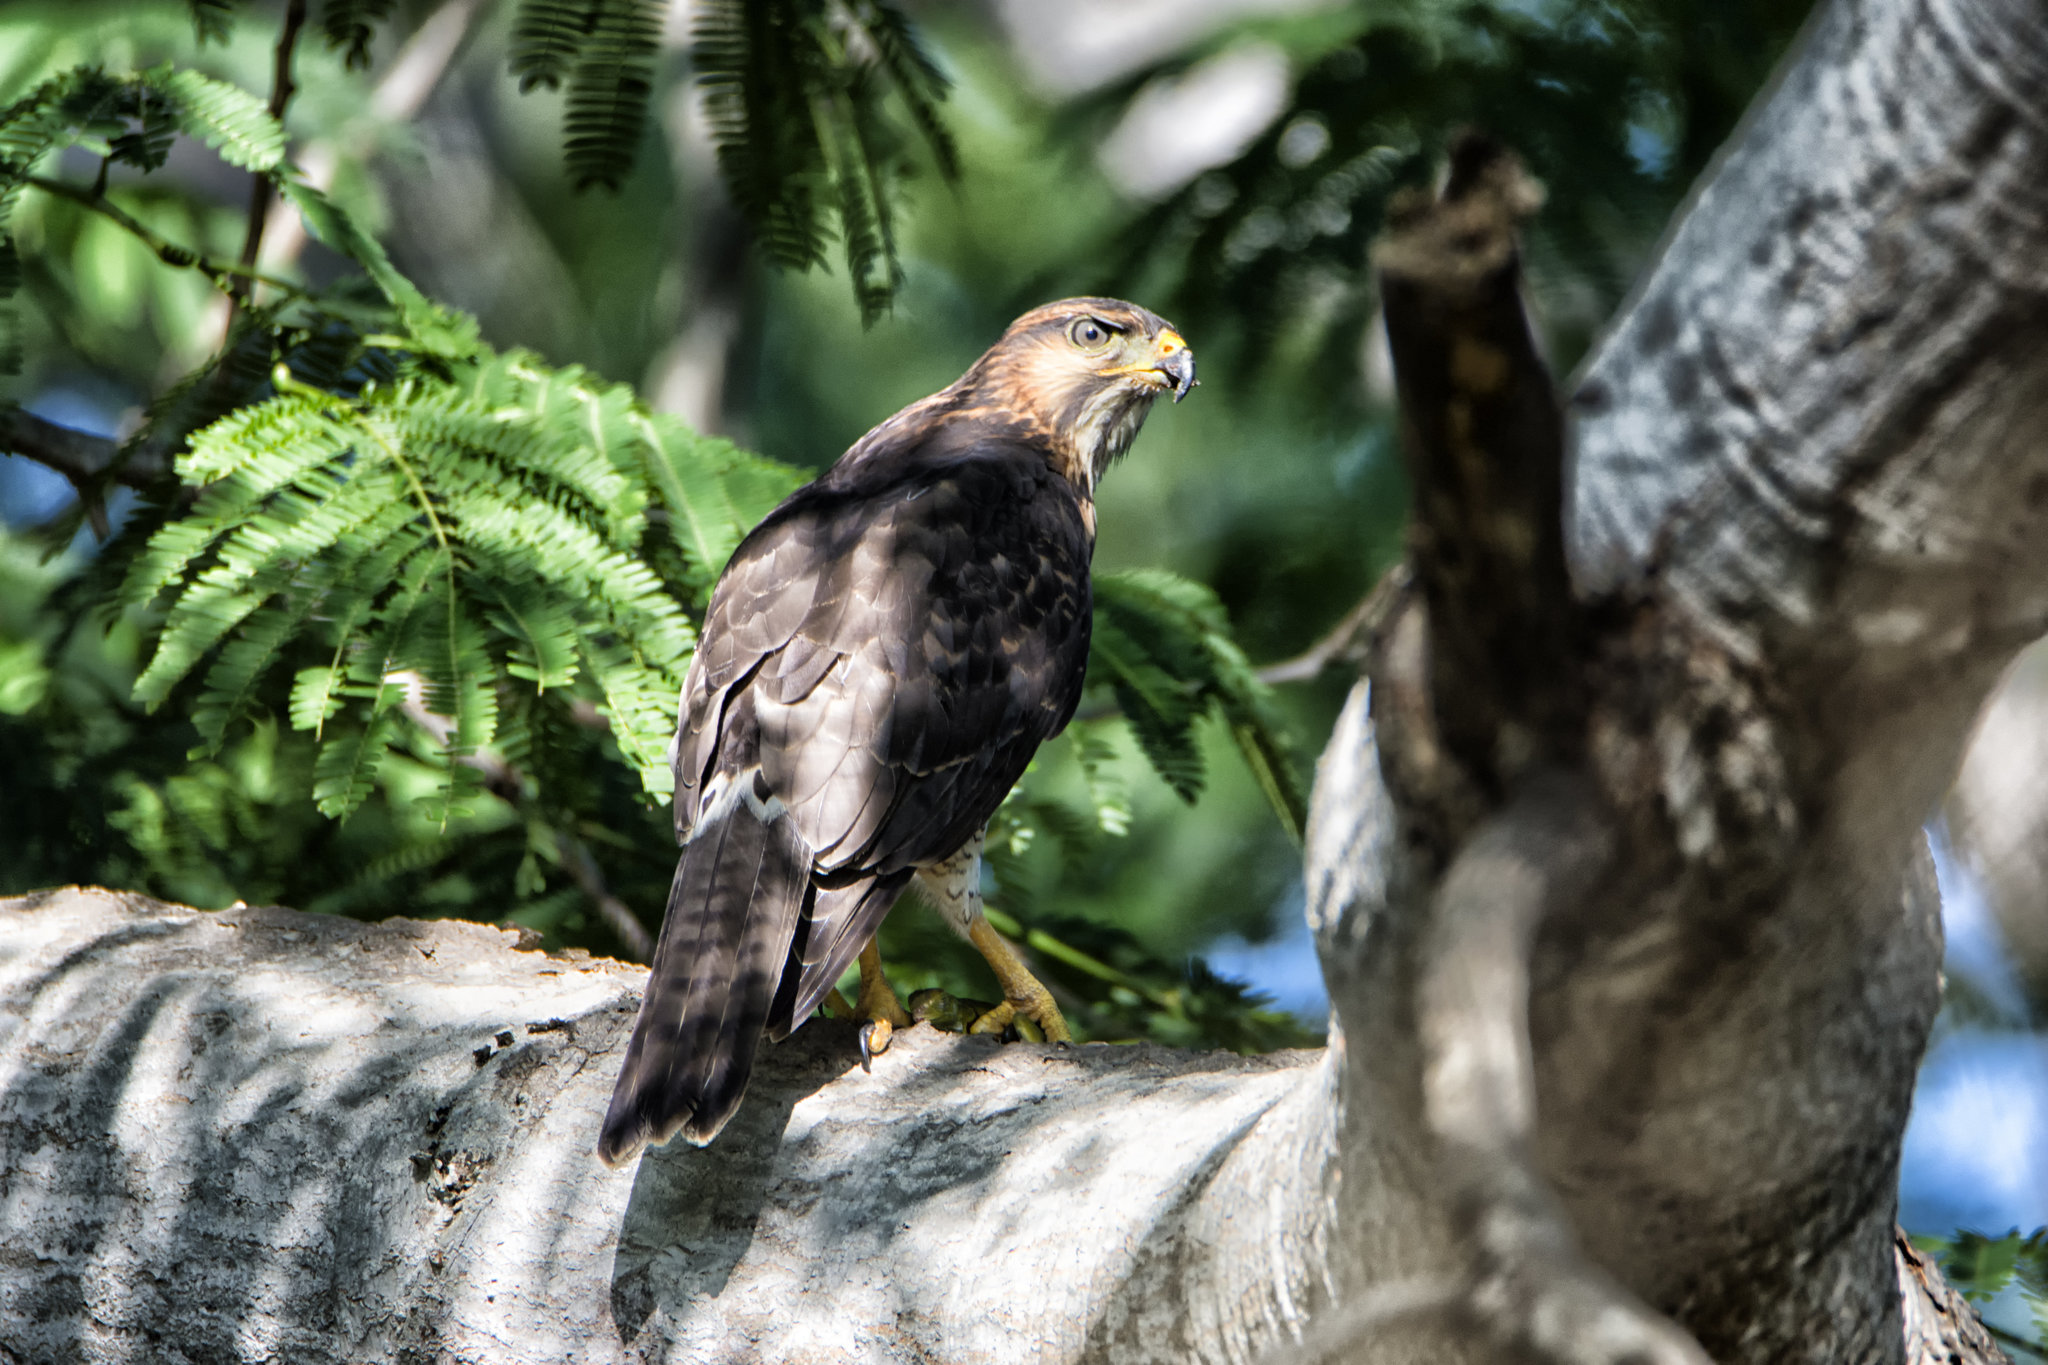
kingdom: Animalia
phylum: Chordata
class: Aves
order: Accipitriformes
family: Accipitridae
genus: Buteo
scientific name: Buteo nitidus
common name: Grey-lined hawk
